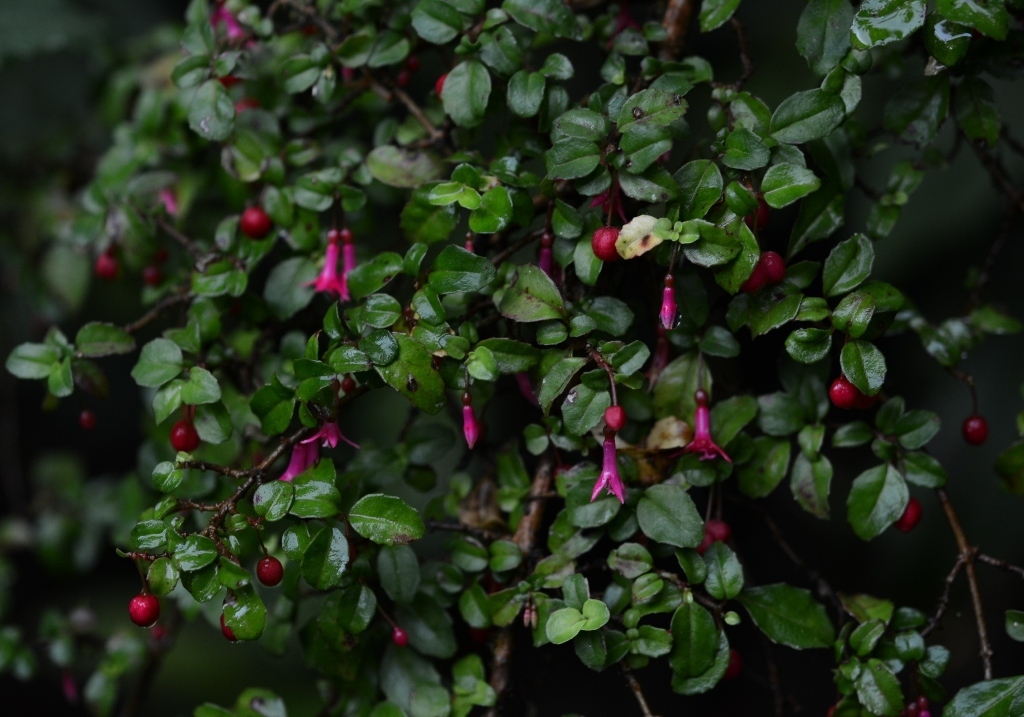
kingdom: Plantae
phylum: Tracheophyta
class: Magnoliopsida
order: Myrtales
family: Onagraceae
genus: Fuchsia
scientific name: Fuchsia microphylla
